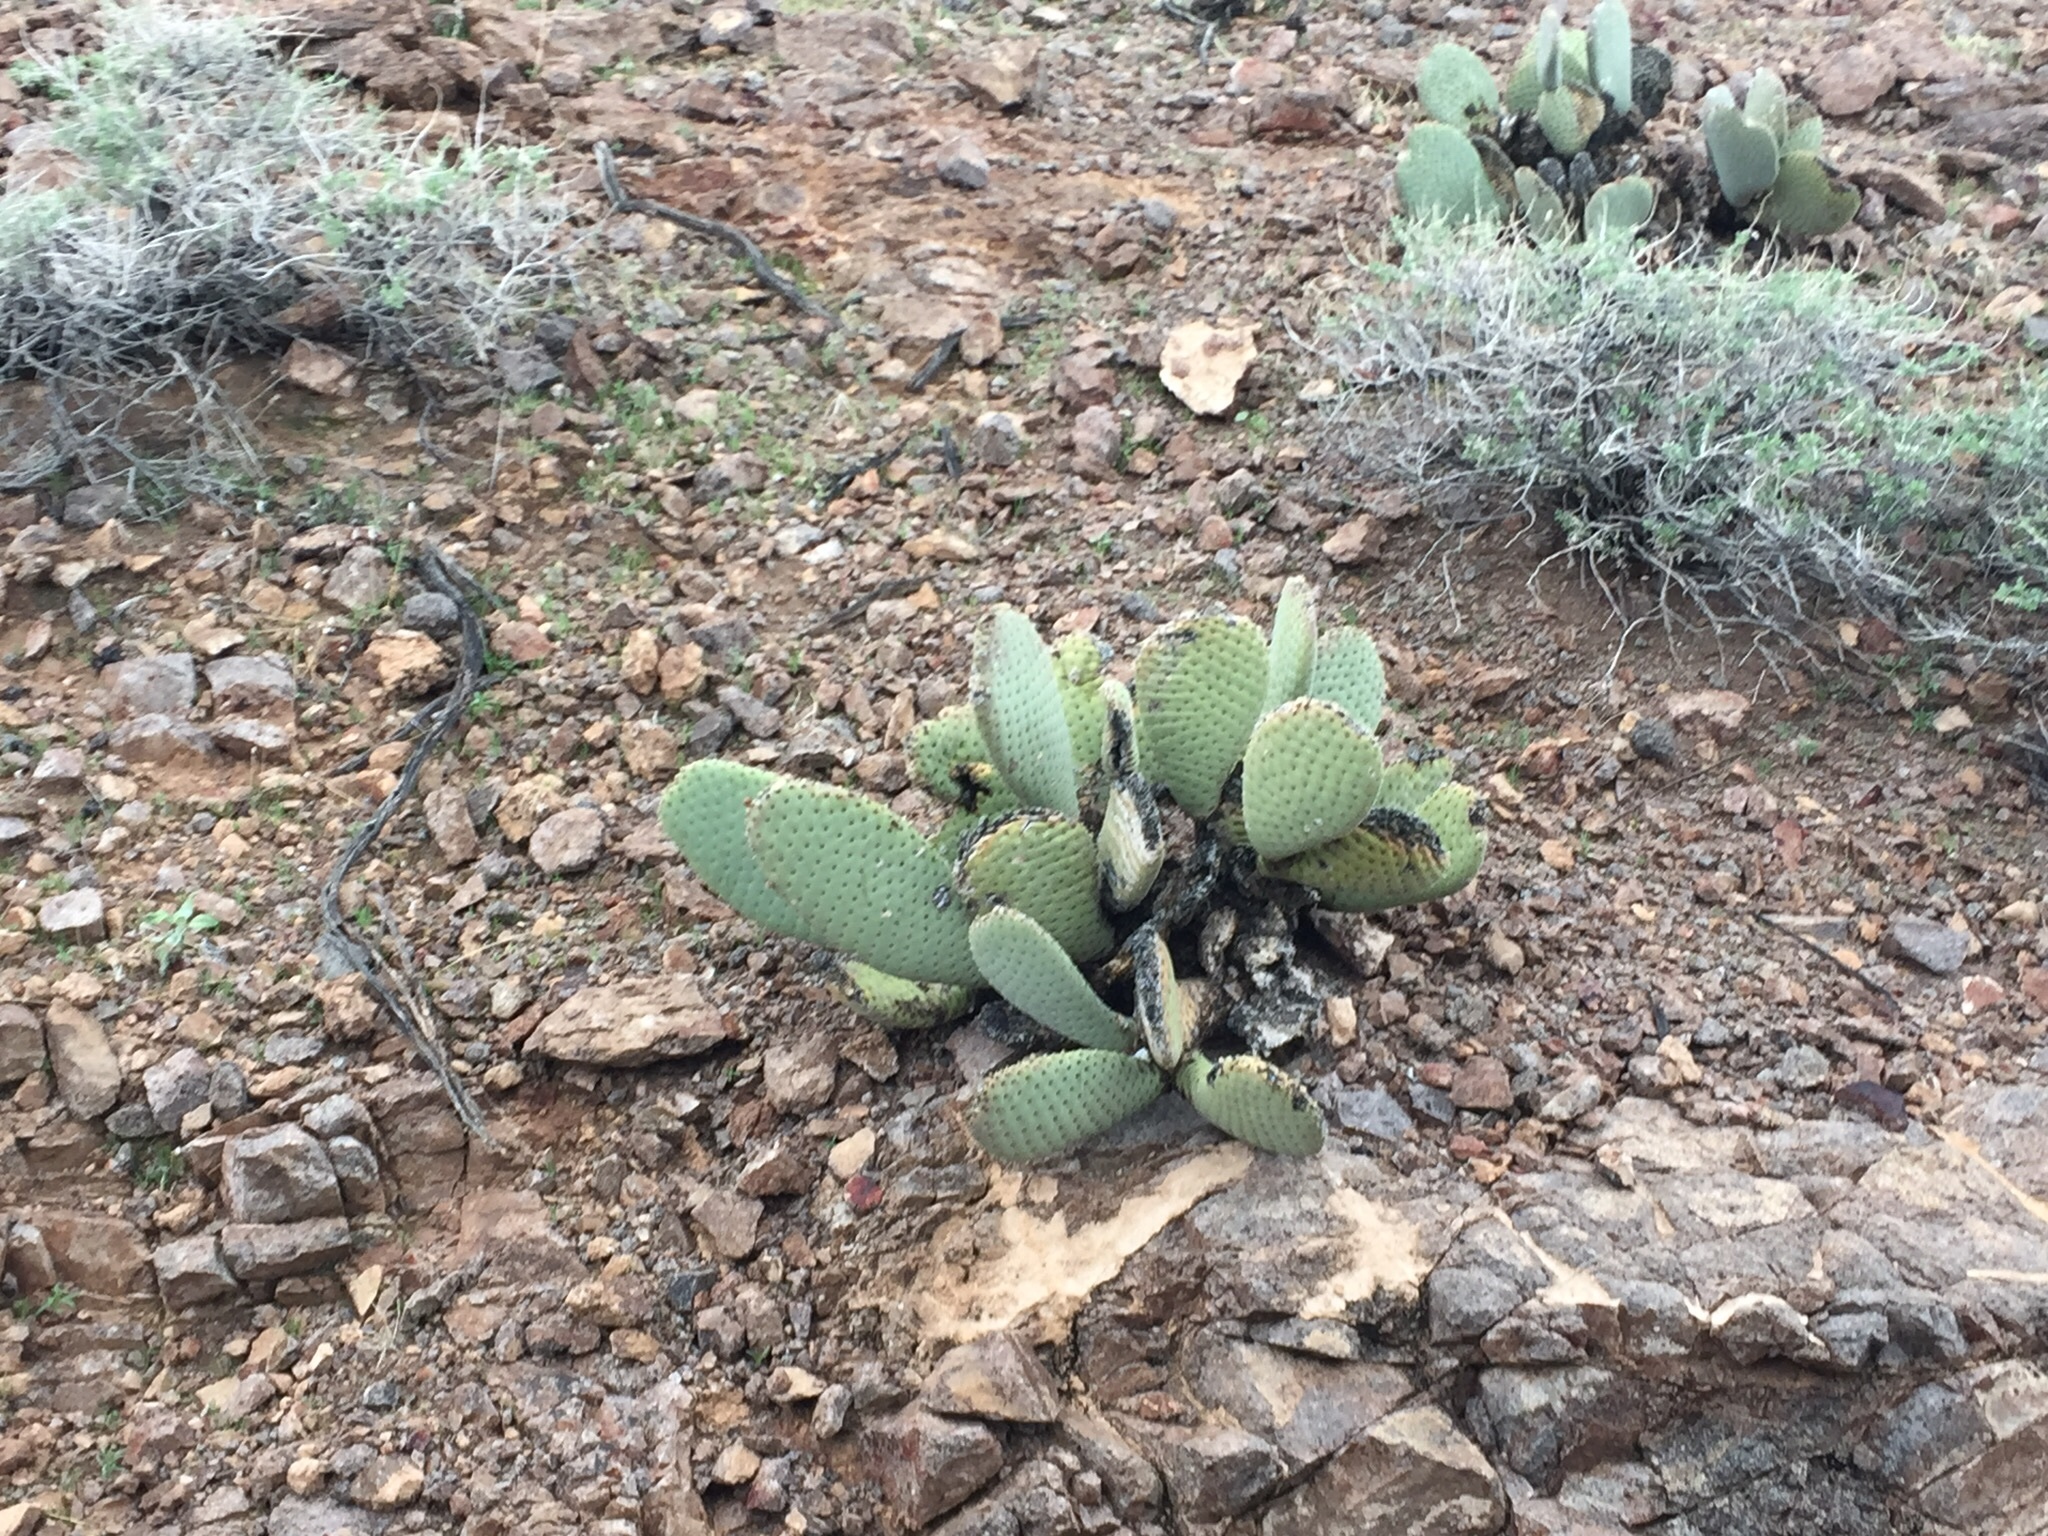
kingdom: Plantae
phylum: Tracheophyta
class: Magnoliopsida
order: Caryophyllales
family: Cactaceae
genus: Opuntia
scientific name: Opuntia basilaris
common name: Beavertail prickly-pear
